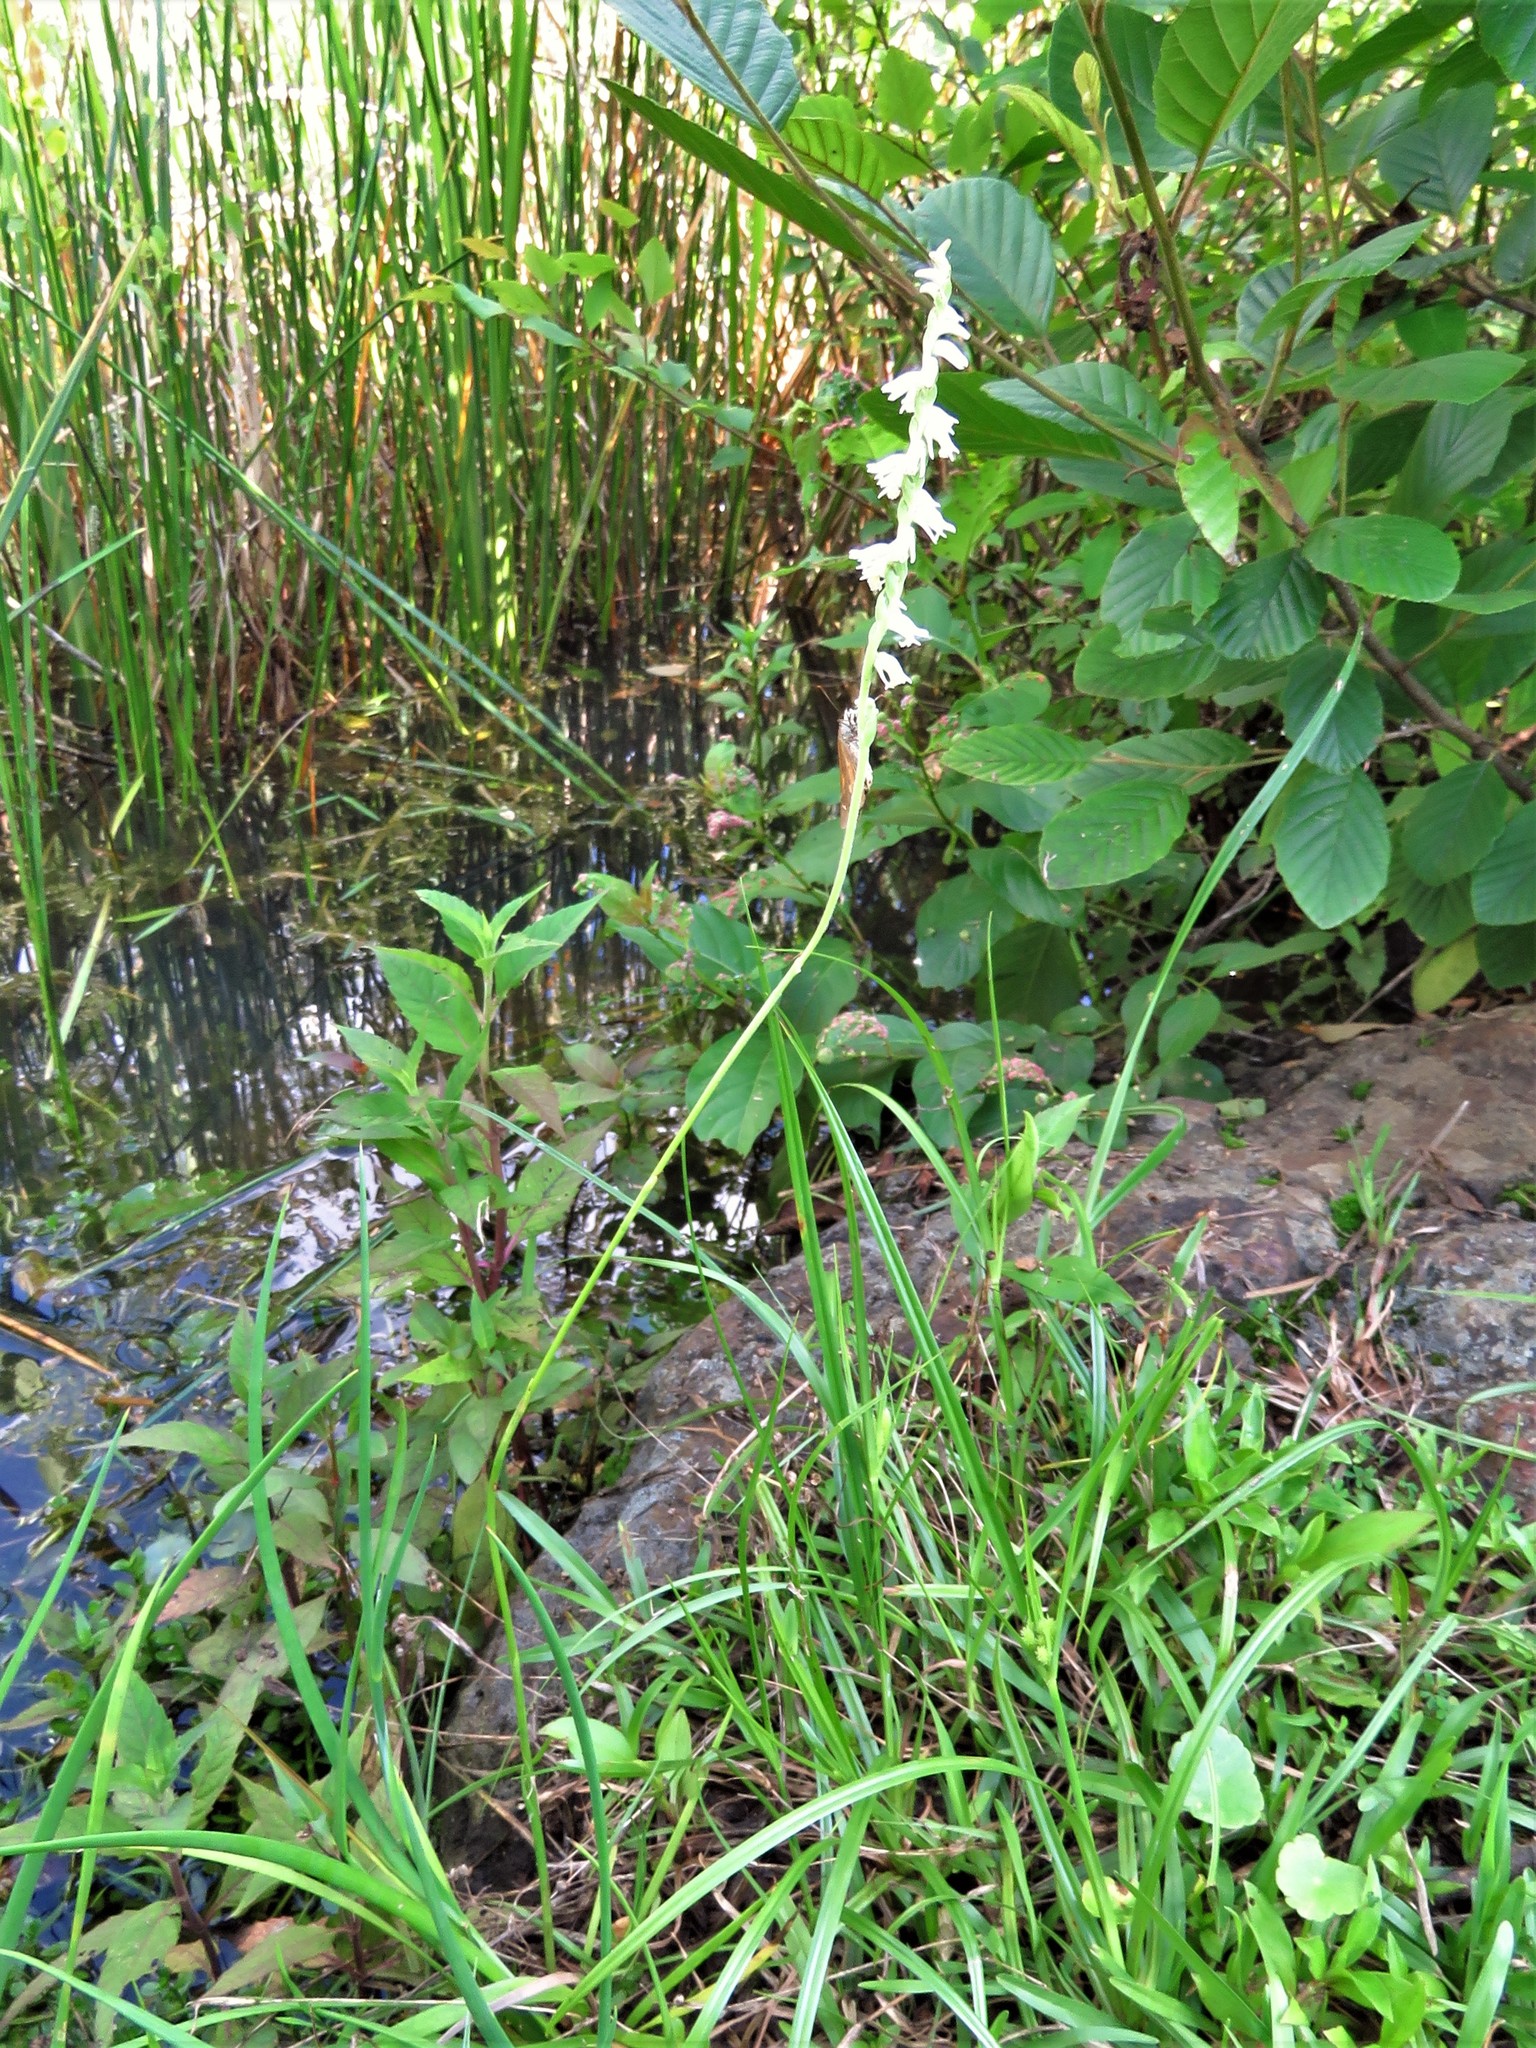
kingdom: Plantae
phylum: Tracheophyta
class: Liliopsida
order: Asparagales
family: Orchidaceae
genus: Spiranthes
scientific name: Spiranthes vernalis
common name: Spring ladies'-tresses
